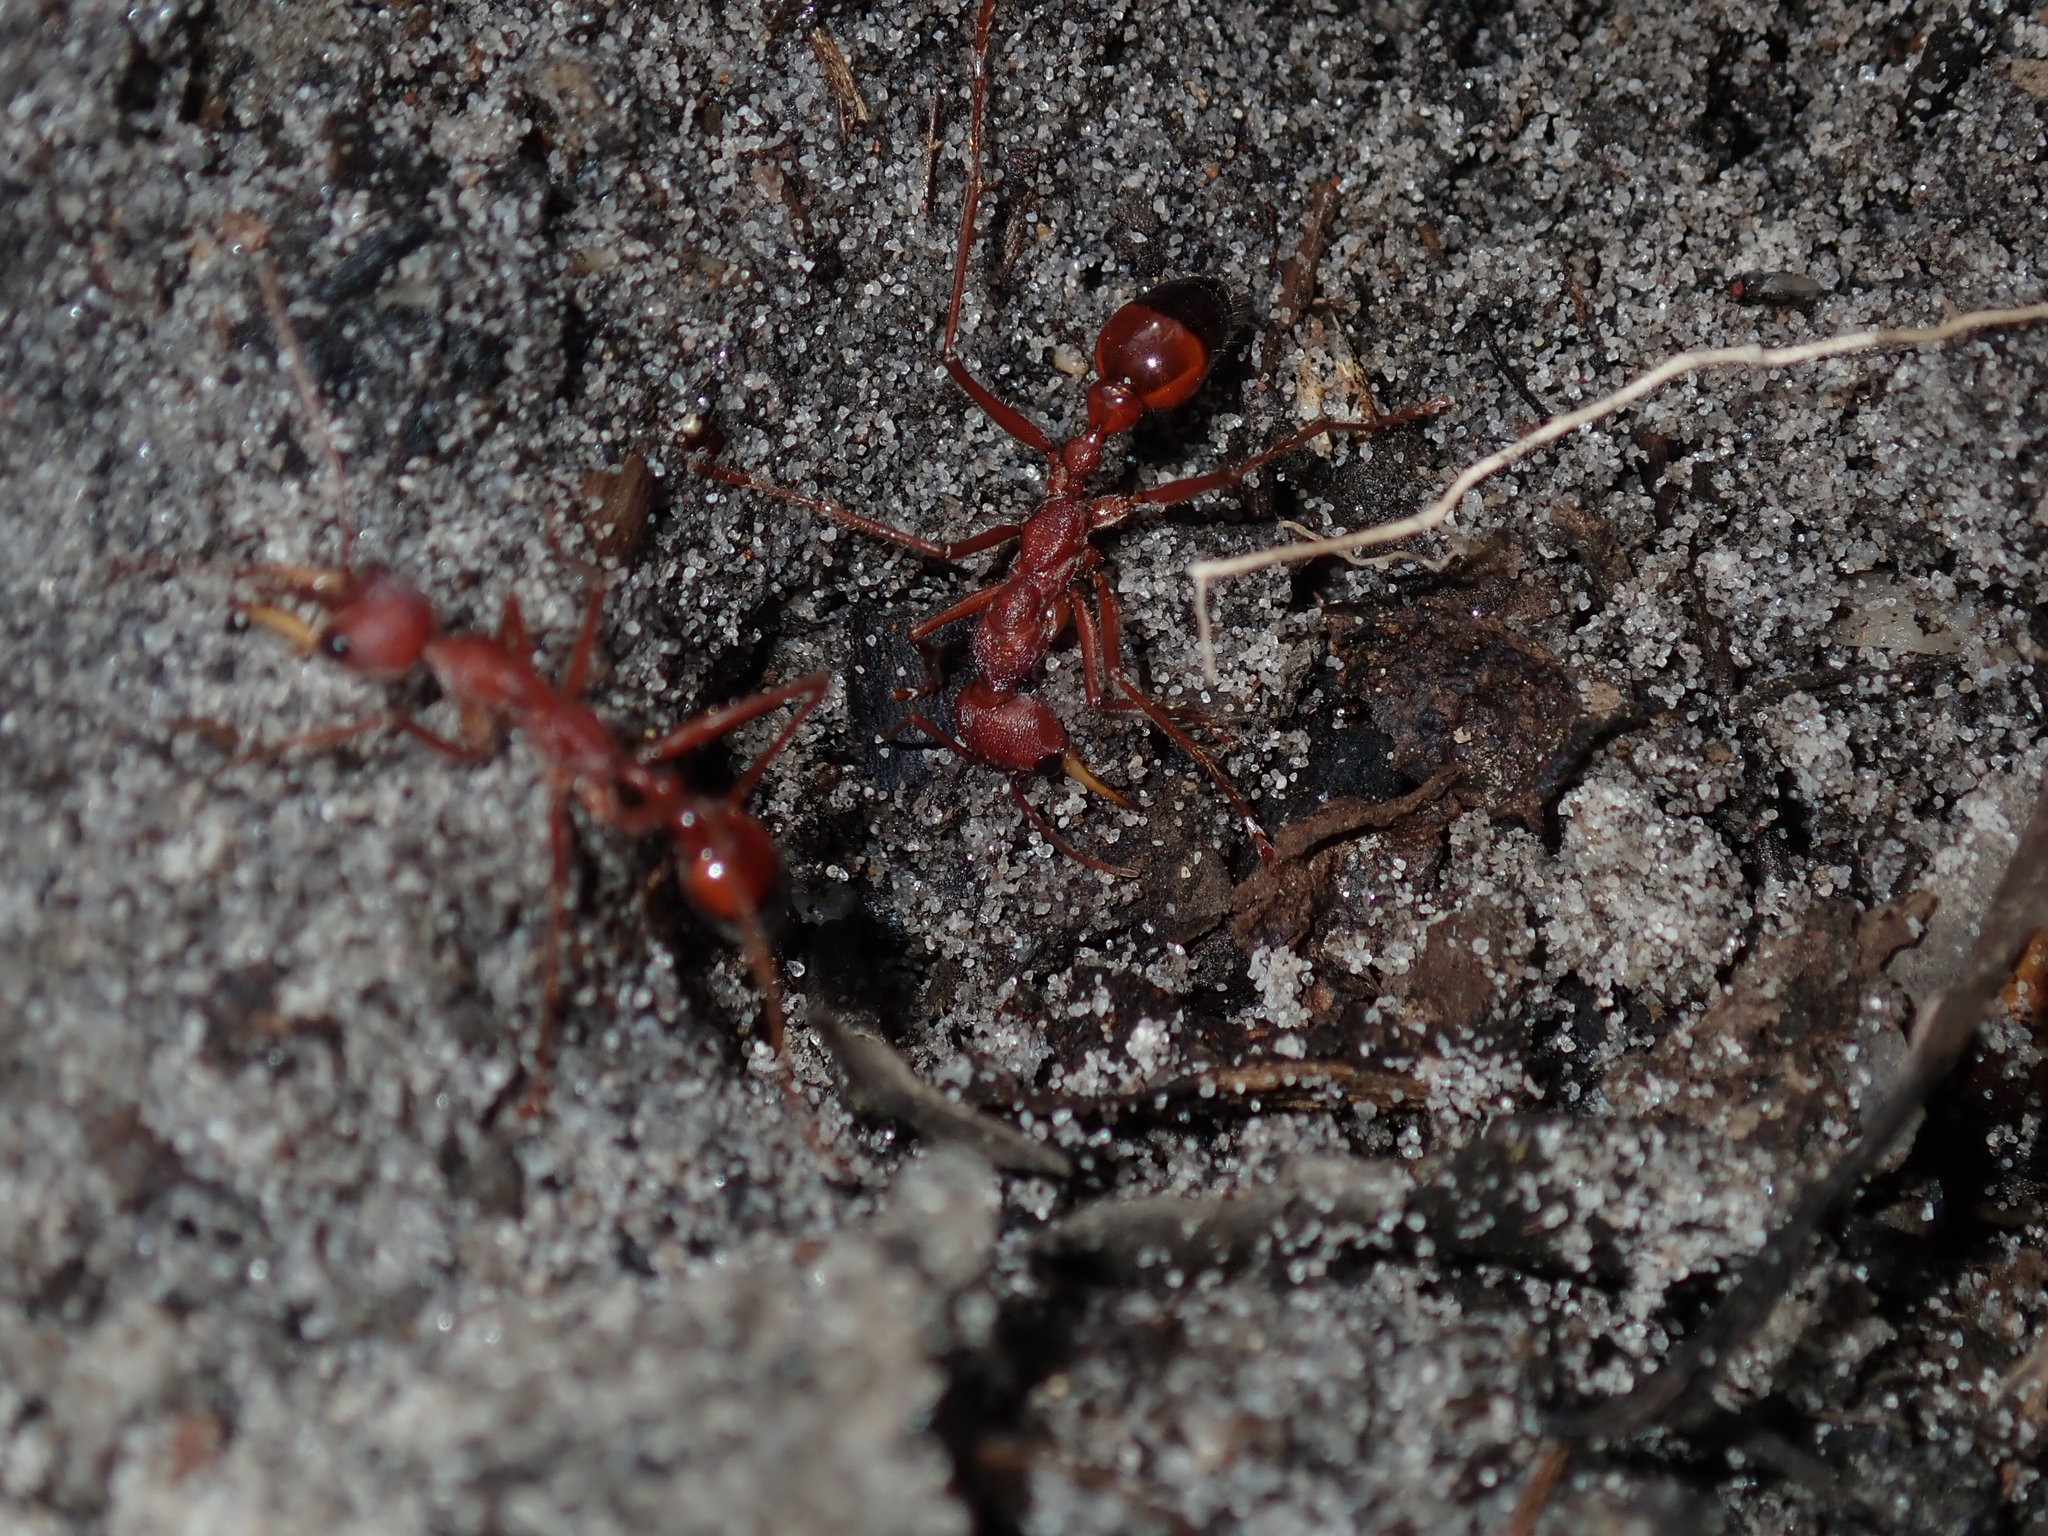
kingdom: Animalia
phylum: Arthropoda
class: Insecta
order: Hymenoptera
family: Formicidae
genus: Myrmecia
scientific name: Myrmecia gulosa
